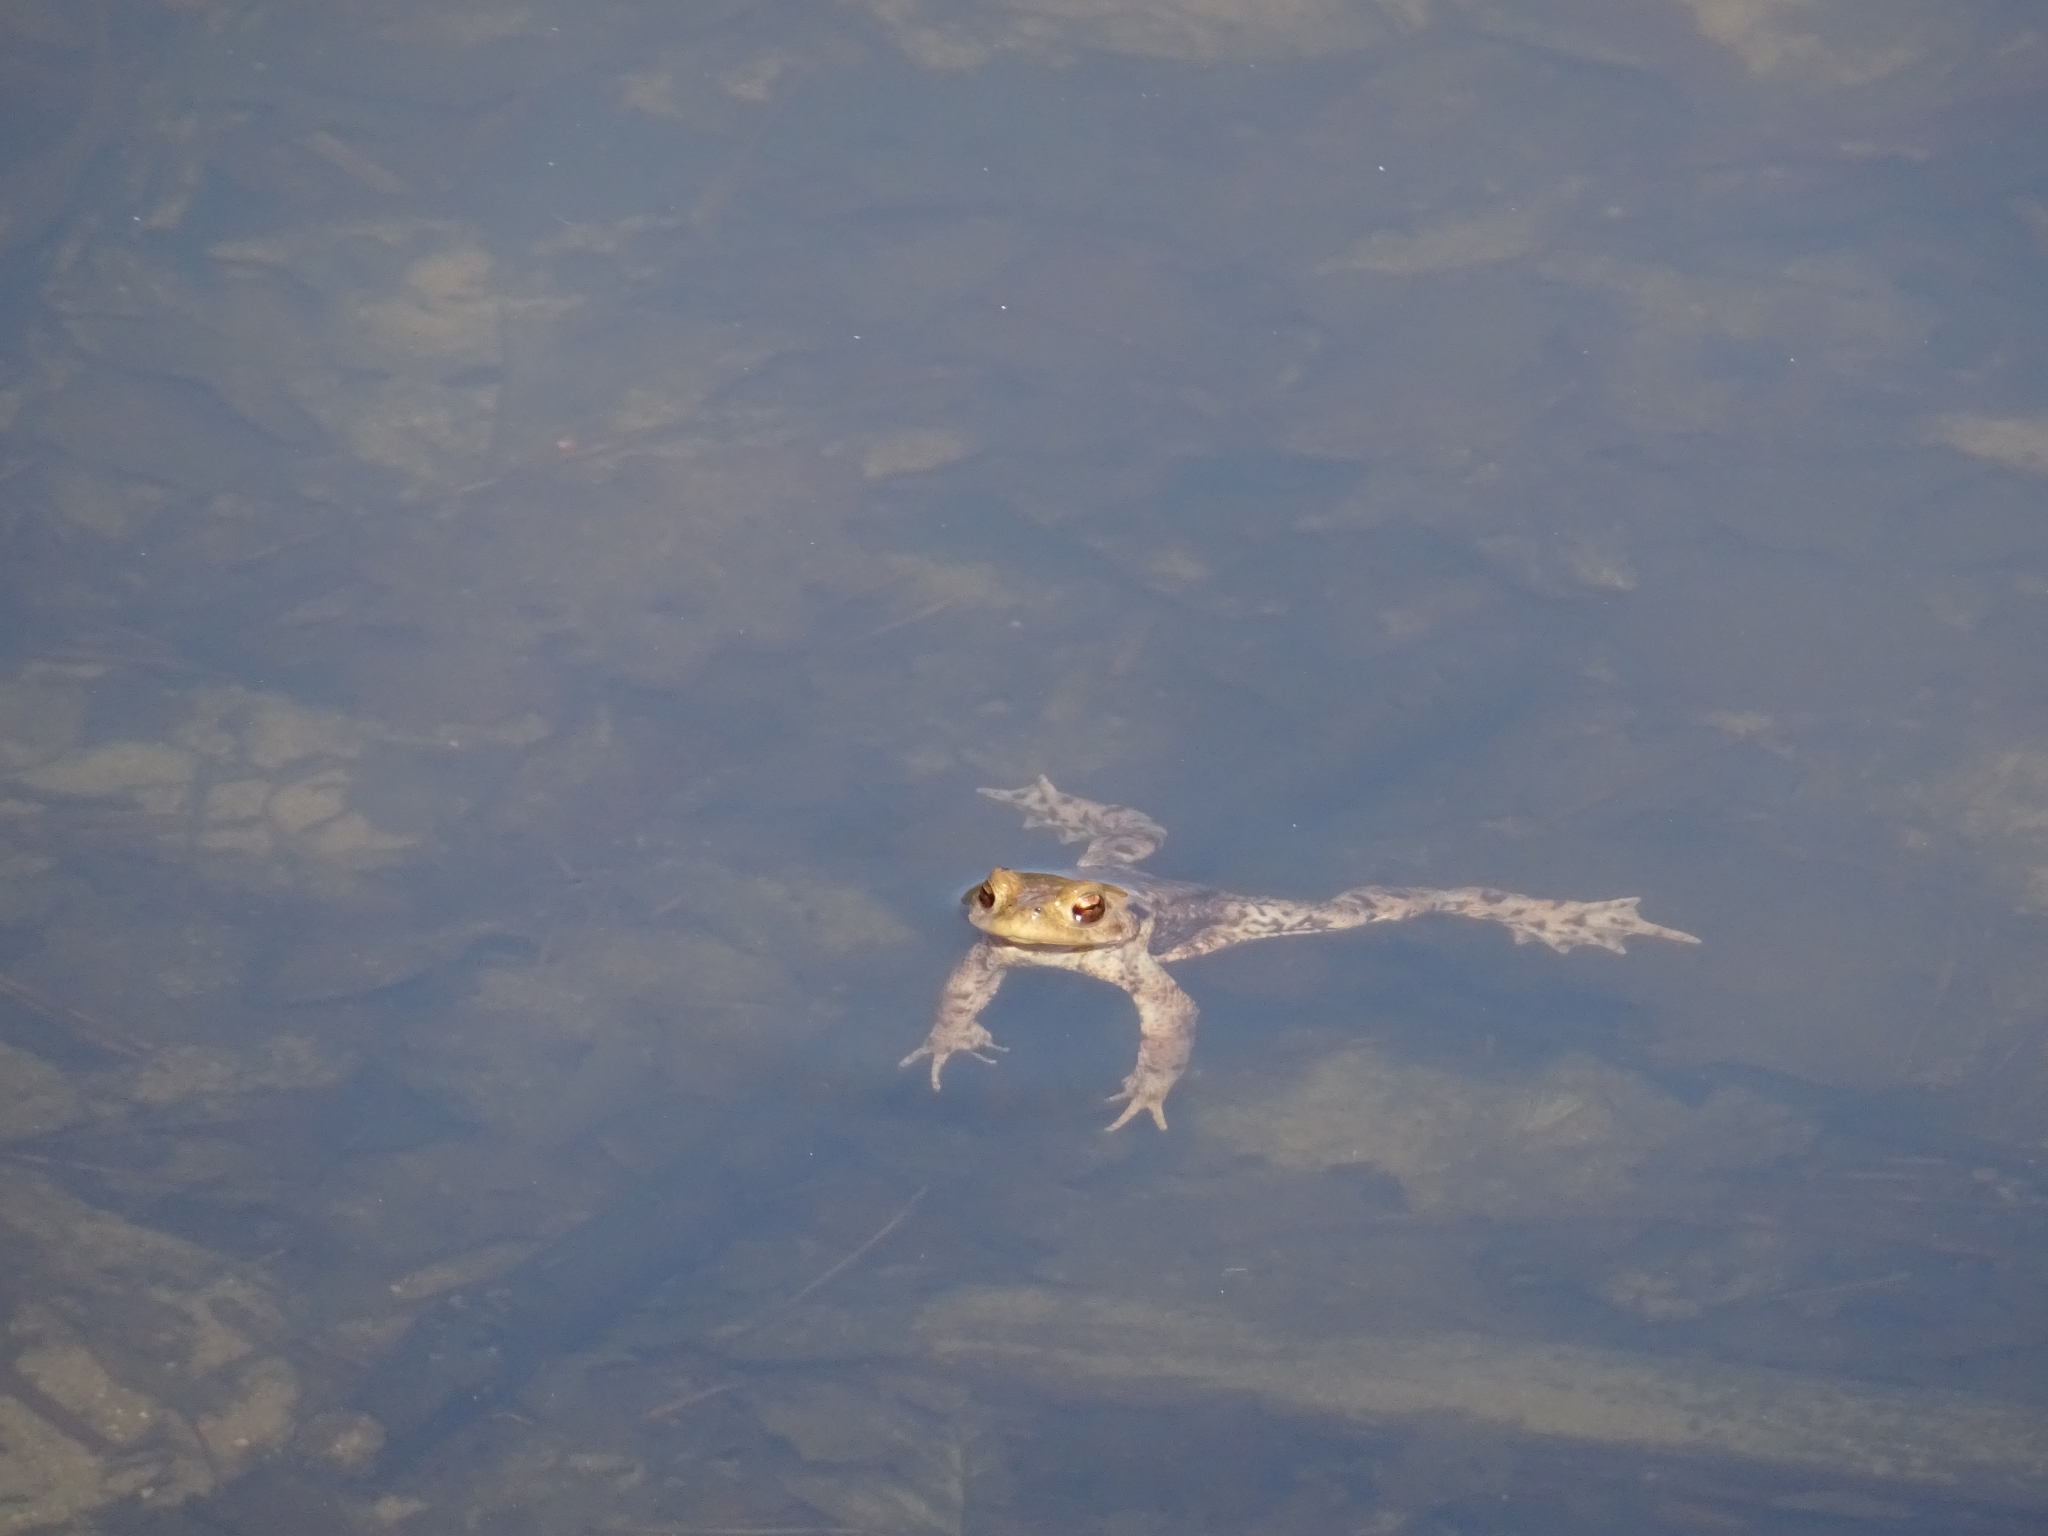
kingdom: Animalia
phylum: Chordata
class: Amphibia
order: Anura
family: Bufonidae
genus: Bufo
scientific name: Bufo bufo
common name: Common toad
